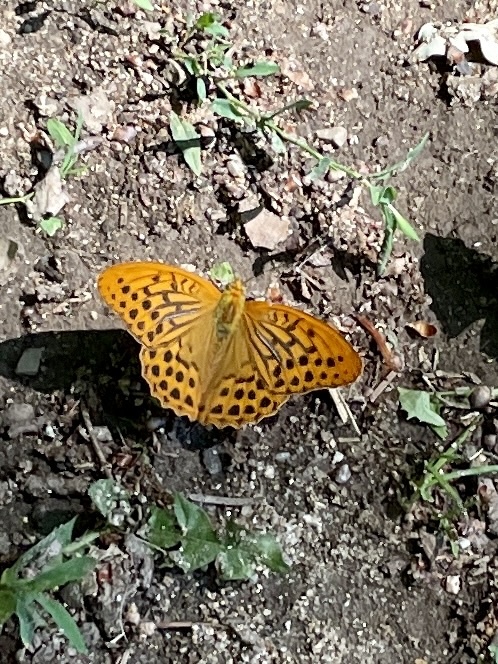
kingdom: Animalia
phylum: Arthropoda
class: Insecta
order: Lepidoptera
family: Nymphalidae
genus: Argynnis
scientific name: Argynnis paphia
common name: Silver-washed fritillary
